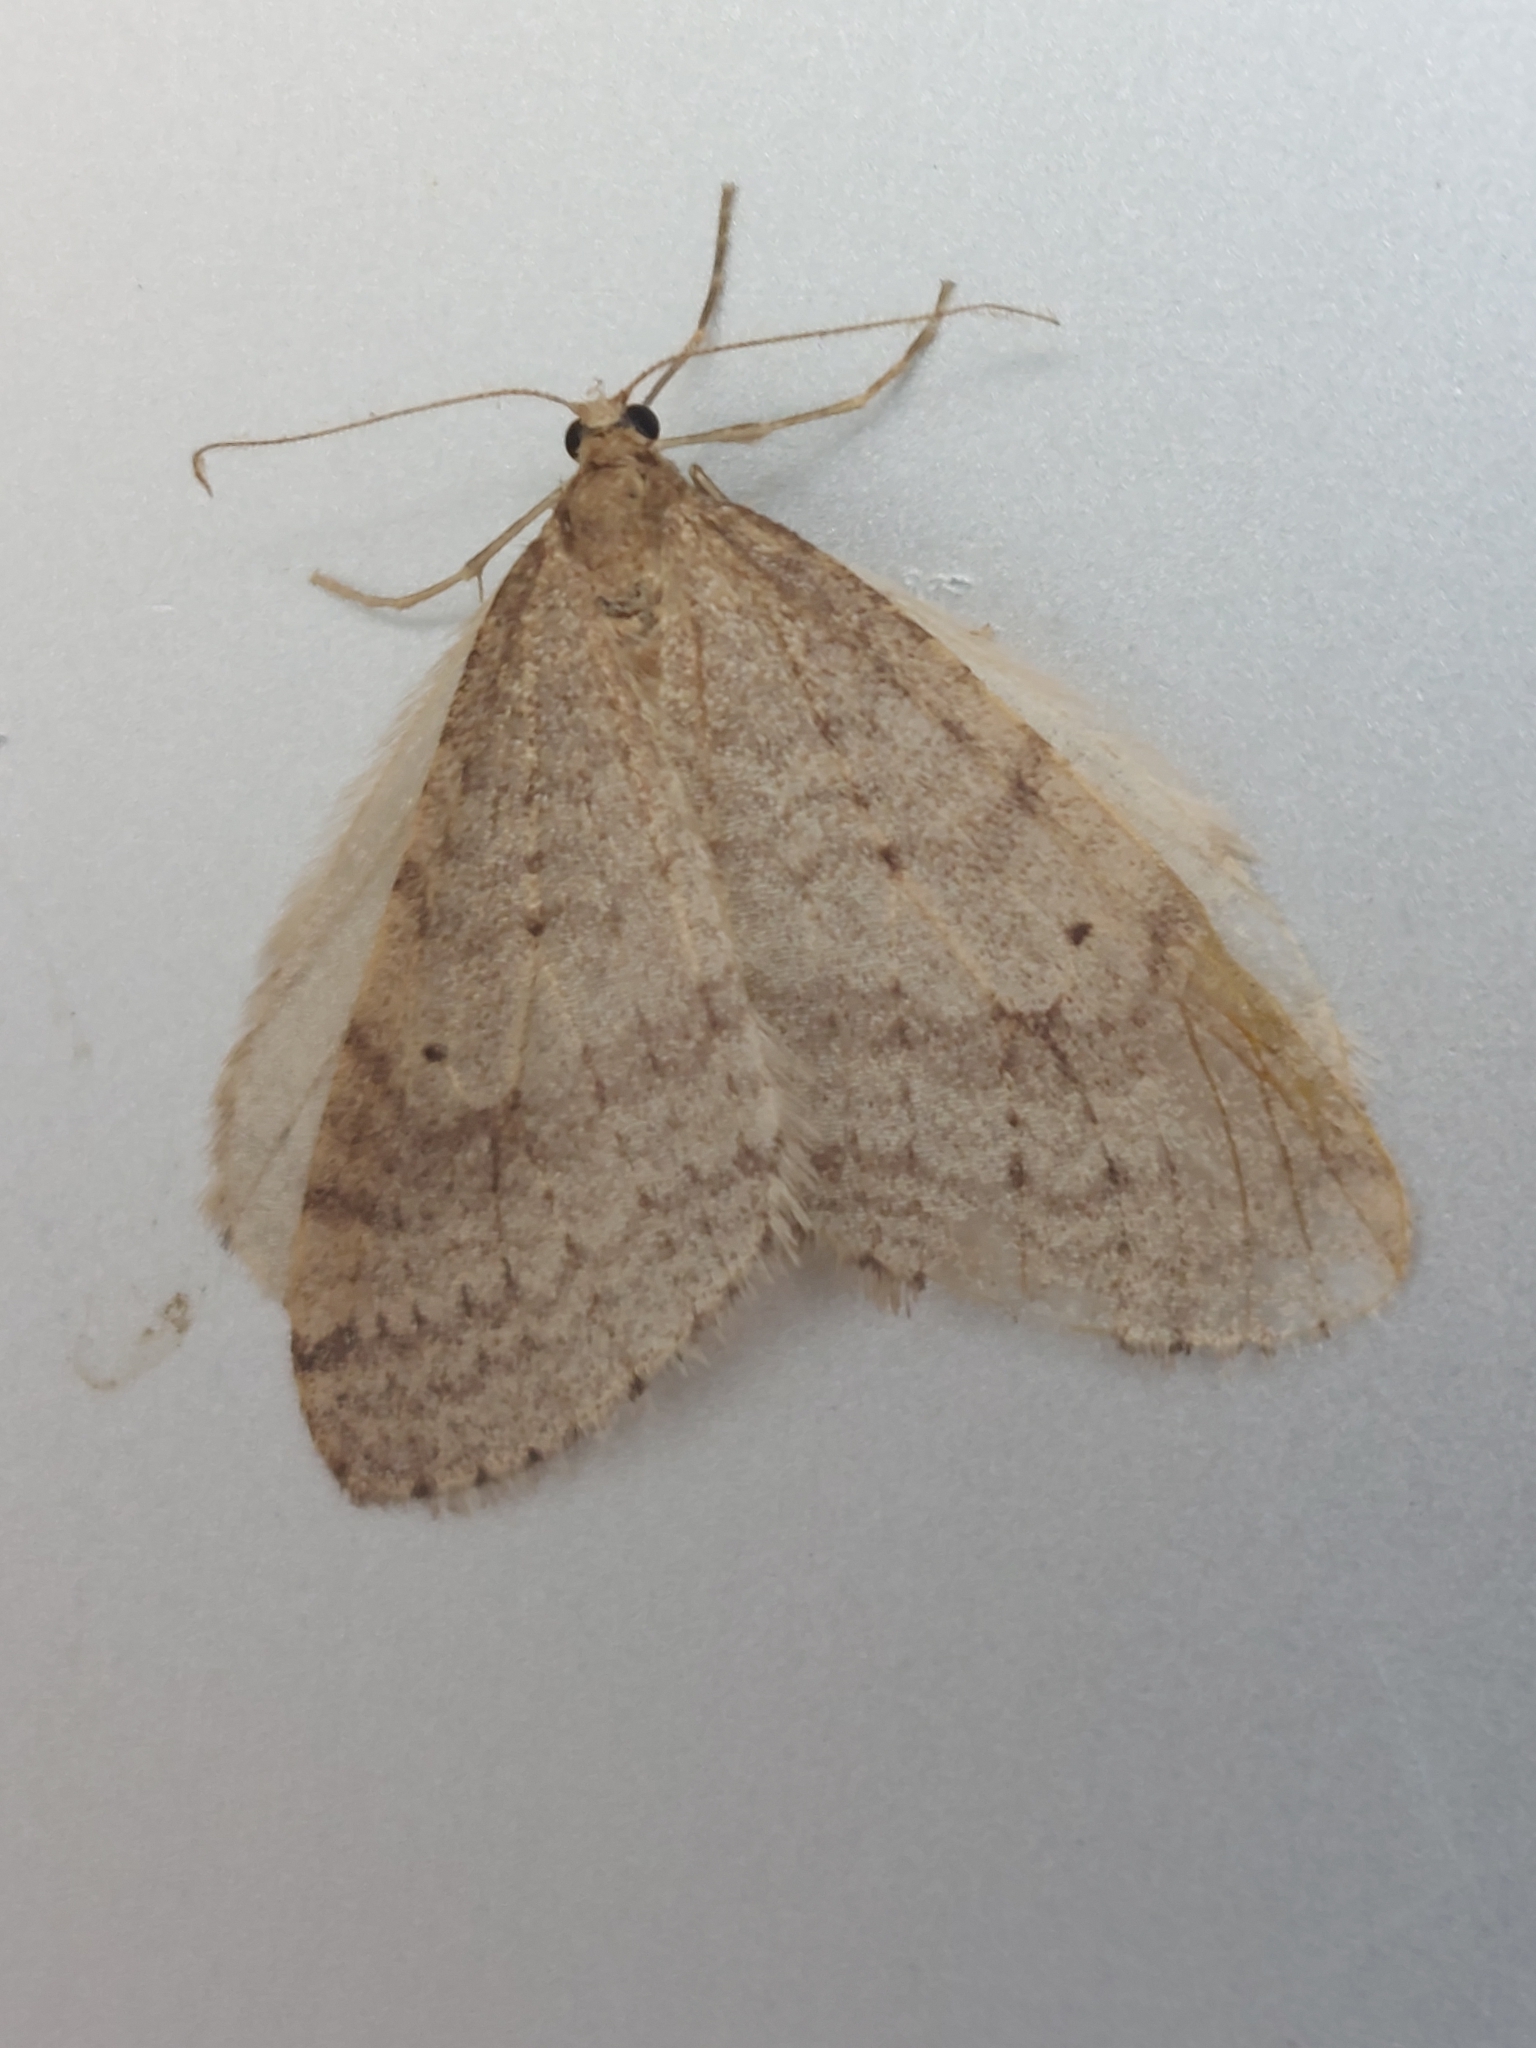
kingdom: Animalia
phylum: Arthropoda
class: Insecta
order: Lepidoptera
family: Geometridae
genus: Operophtera
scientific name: Operophtera bruceata
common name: Bruce spanworm
